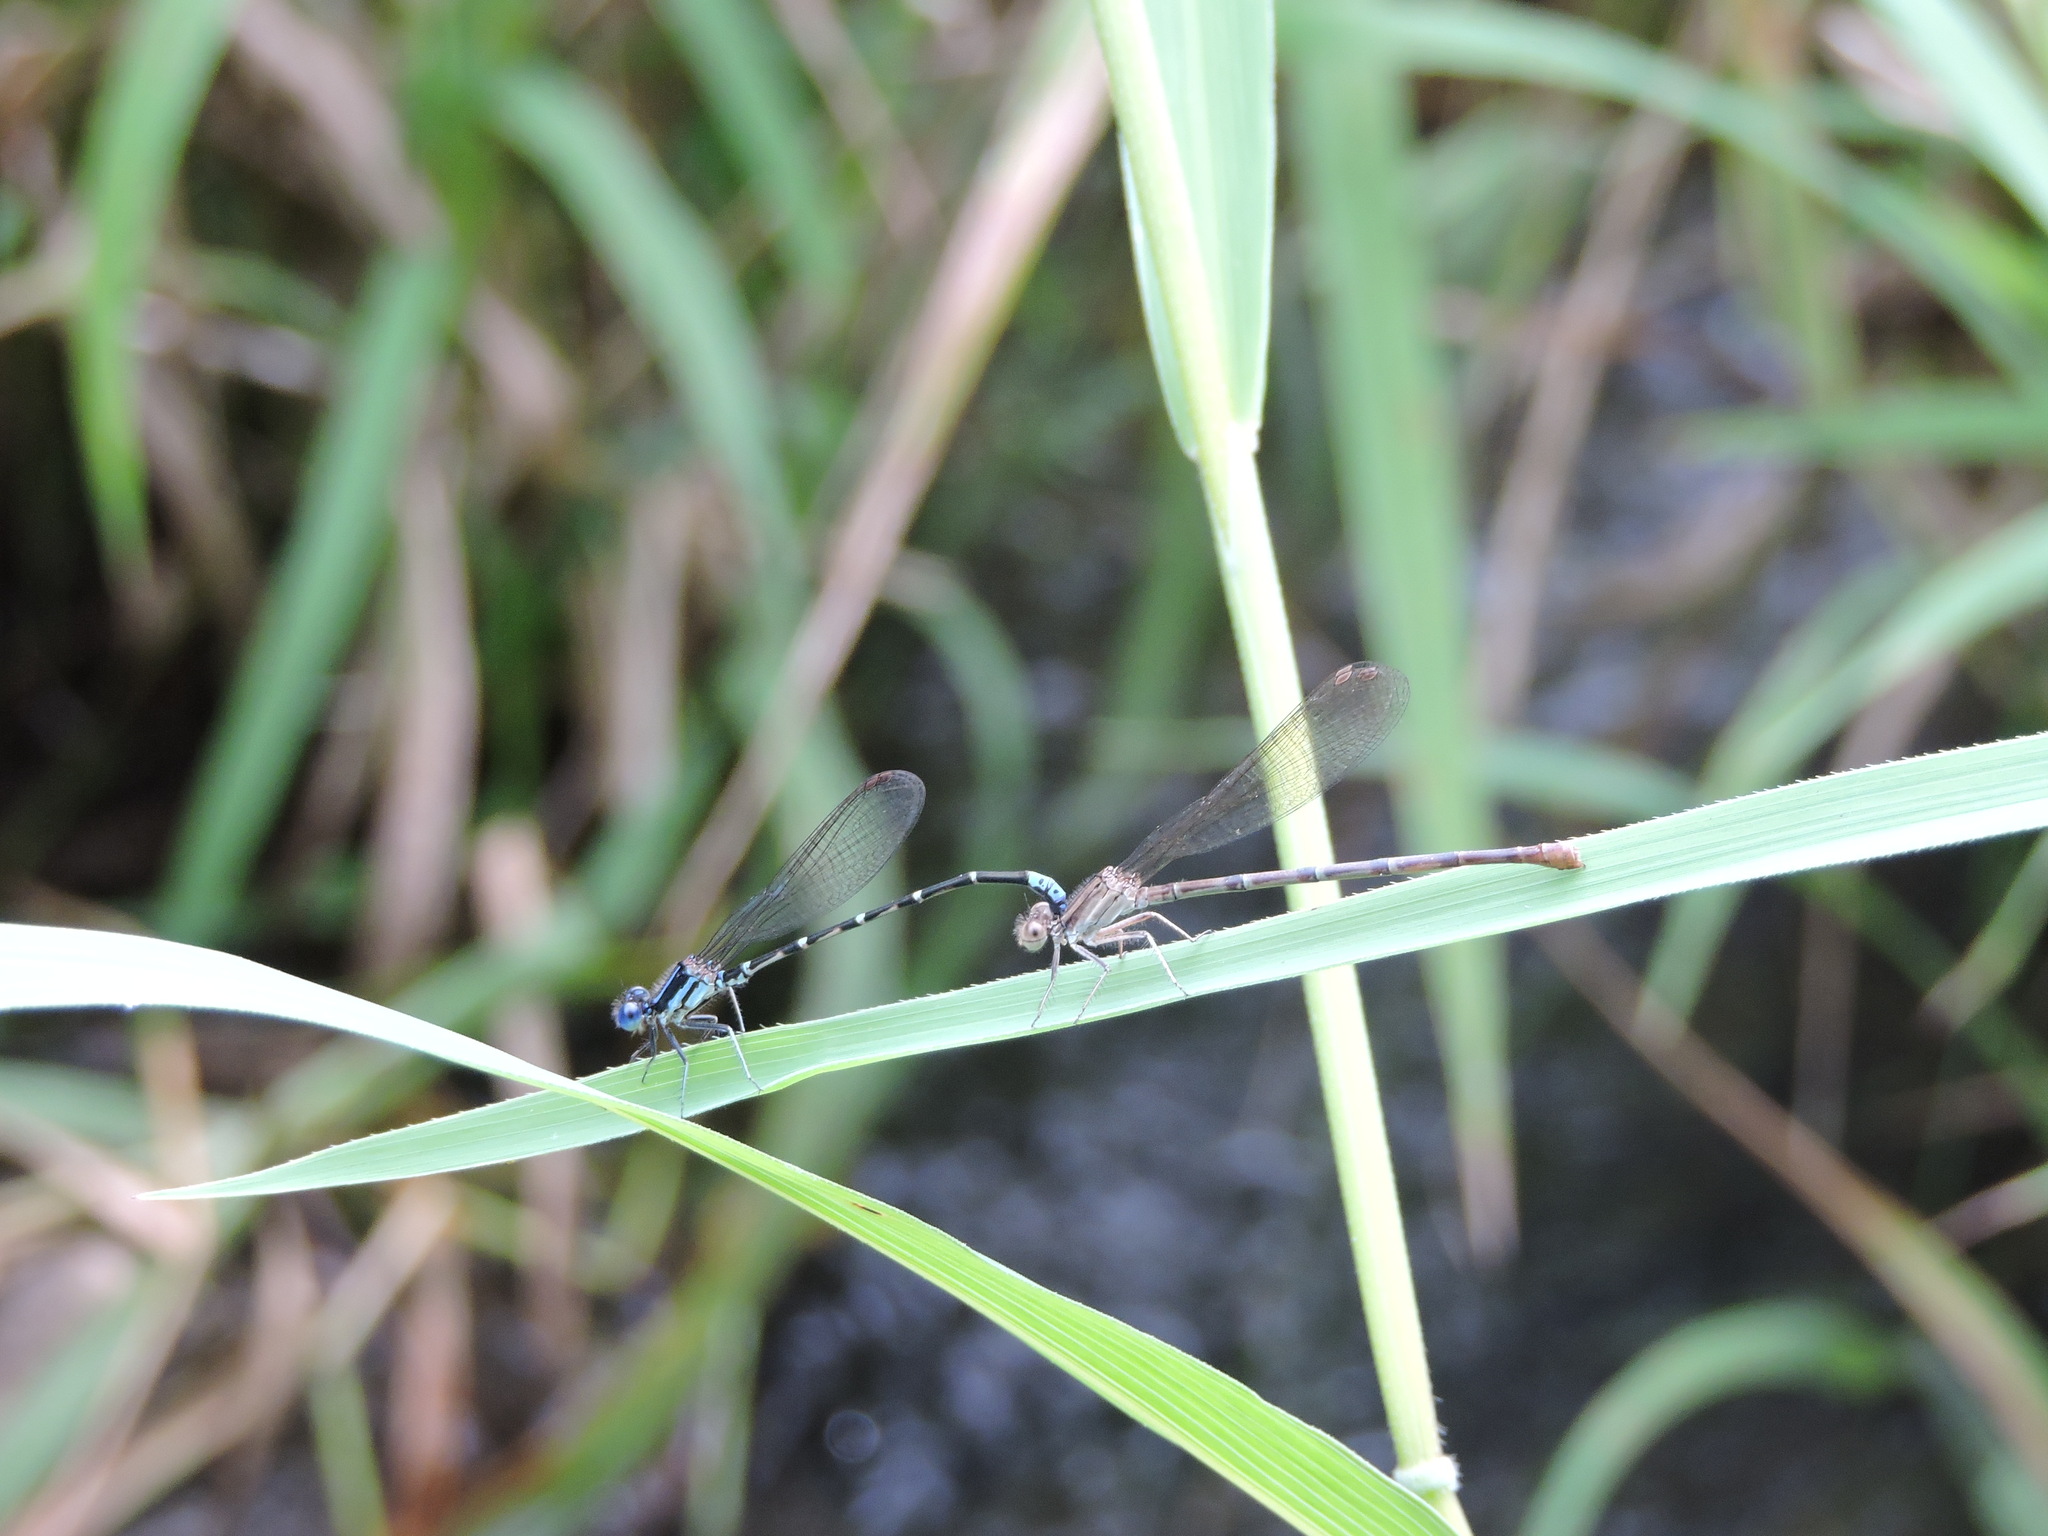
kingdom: Animalia
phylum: Arthropoda
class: Insecta
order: Odonata
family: Coenagrionidae
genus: Argia
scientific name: Argia sedula
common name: Blue-ringed dancer
